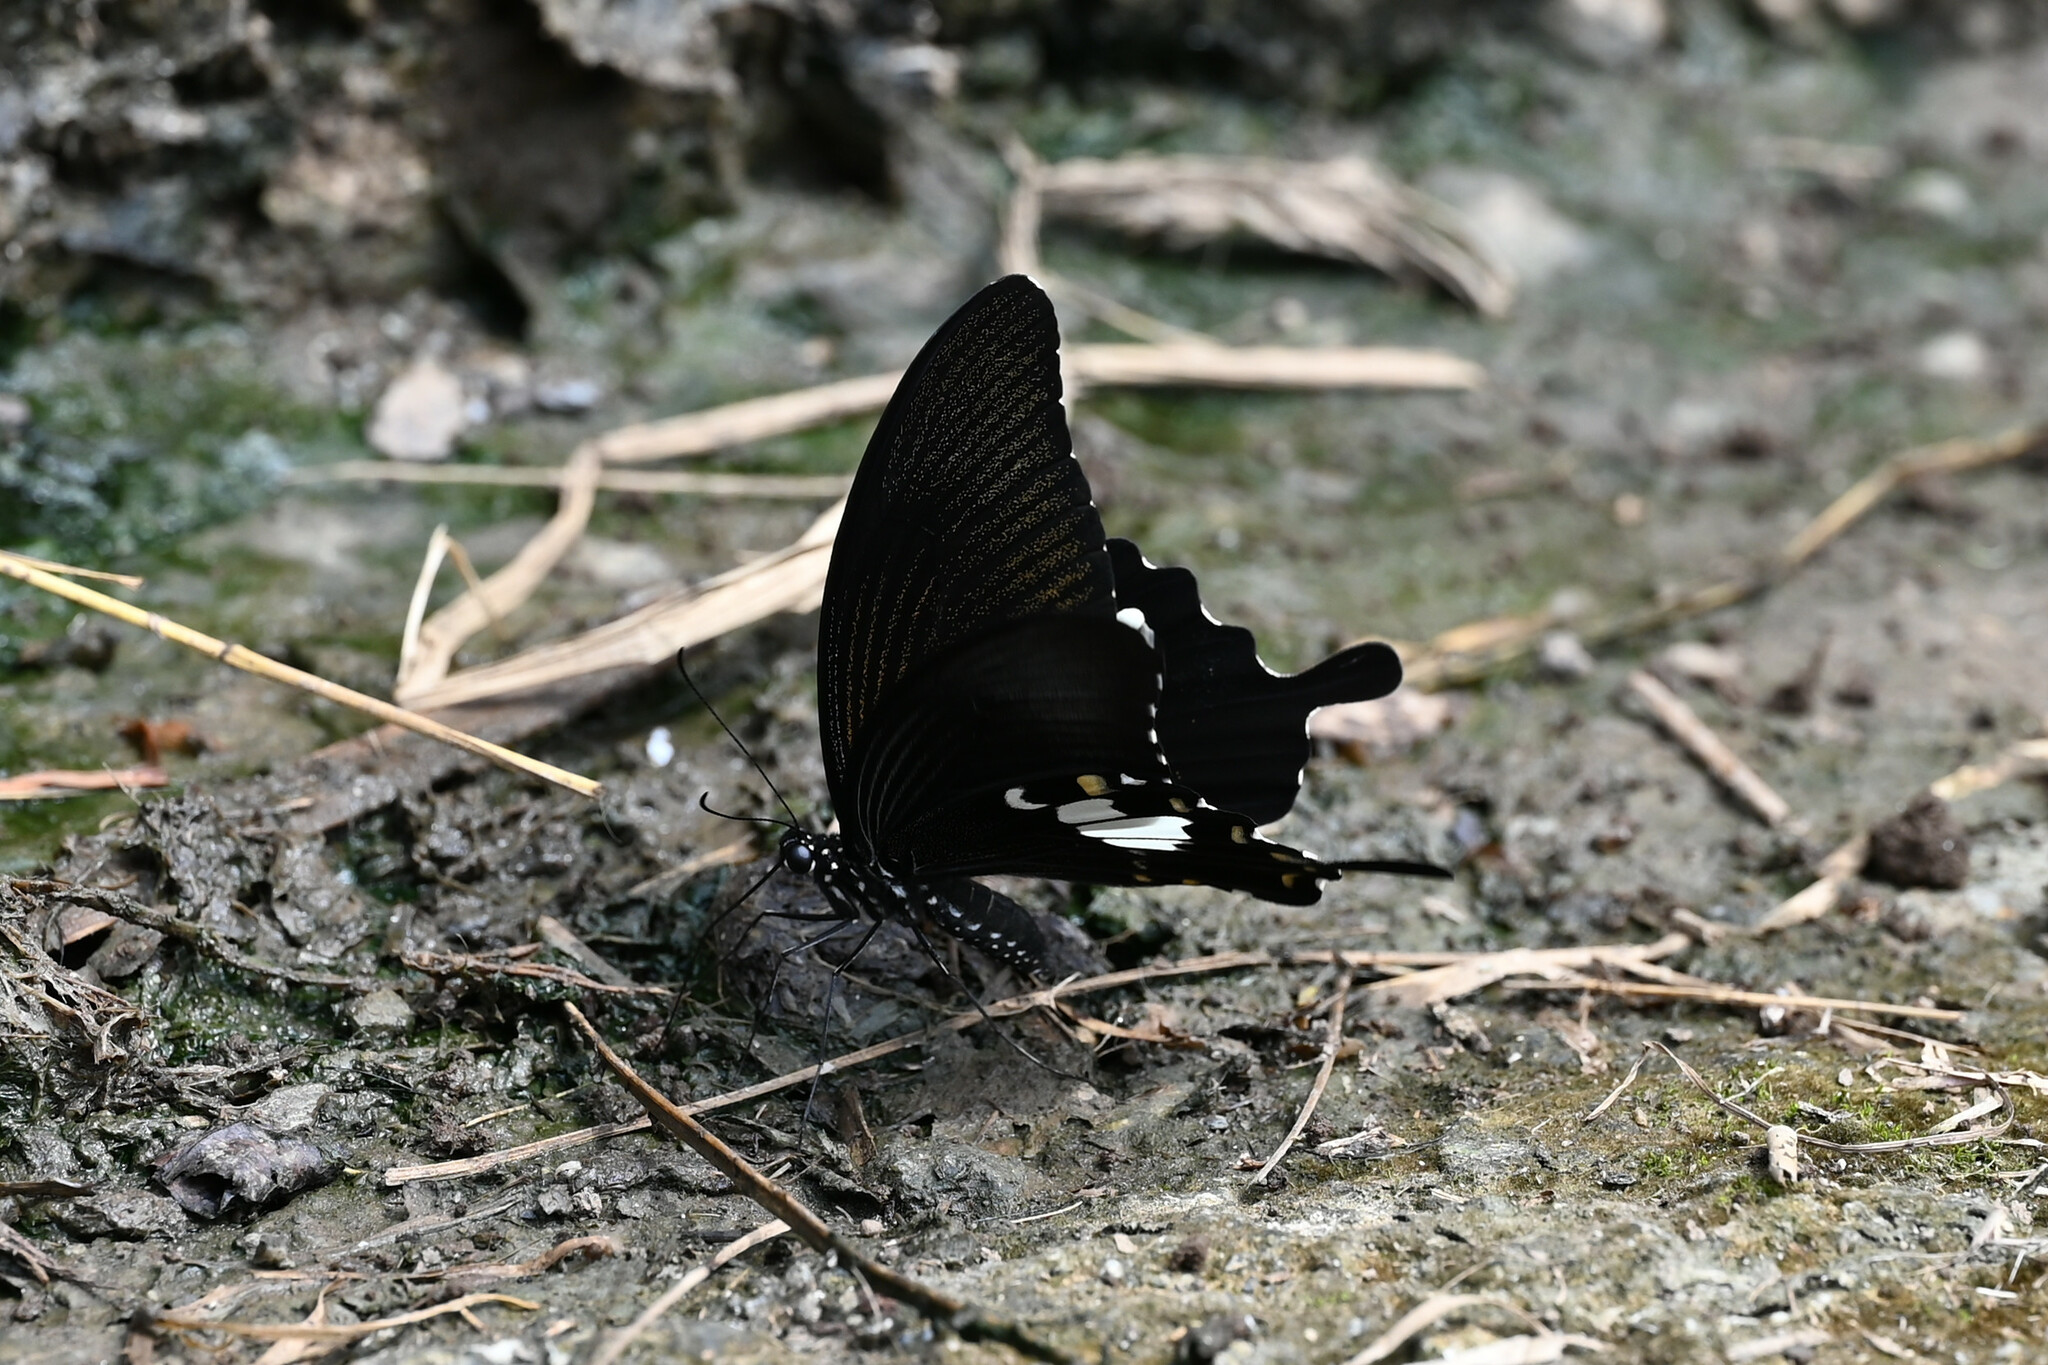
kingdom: Animalia
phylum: Arthropoda
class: Insecta
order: Lepidoptera
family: Papilionidae
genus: Atrophaneura
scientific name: Atrophaneura varuna
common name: Common batwing
